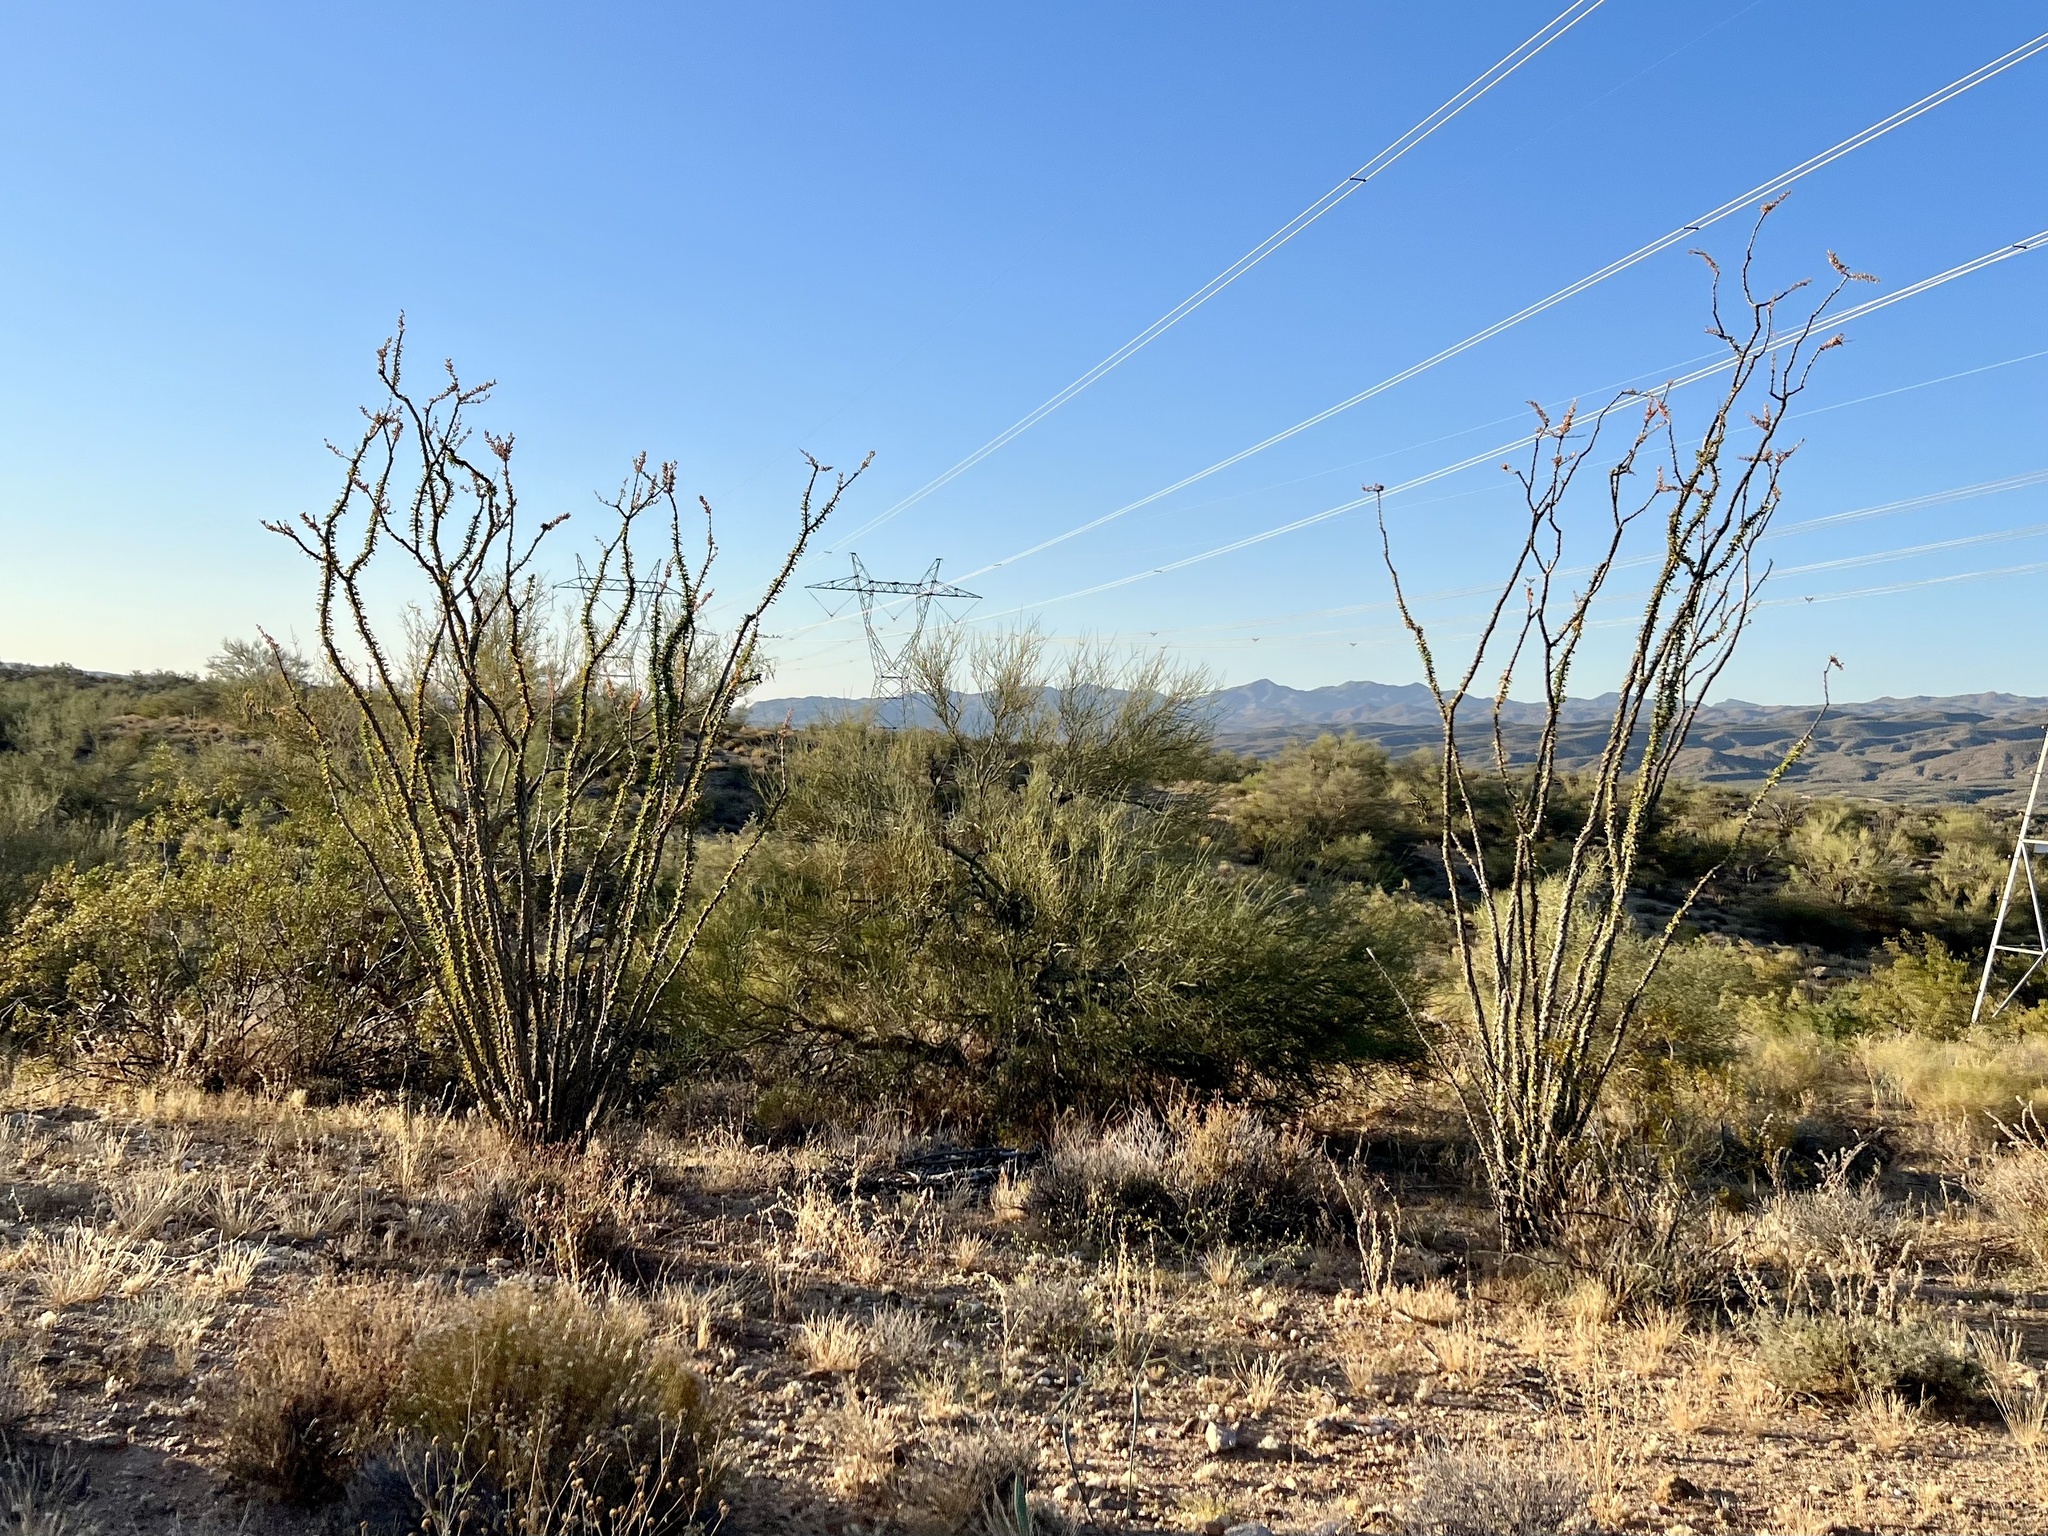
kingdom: Plantae
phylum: Tracheophyta
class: Magnoliopsida
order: Ericales
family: Fouquieriaceae
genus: Fouquieria
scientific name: Fouquieria splendens
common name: Vine-cactus
